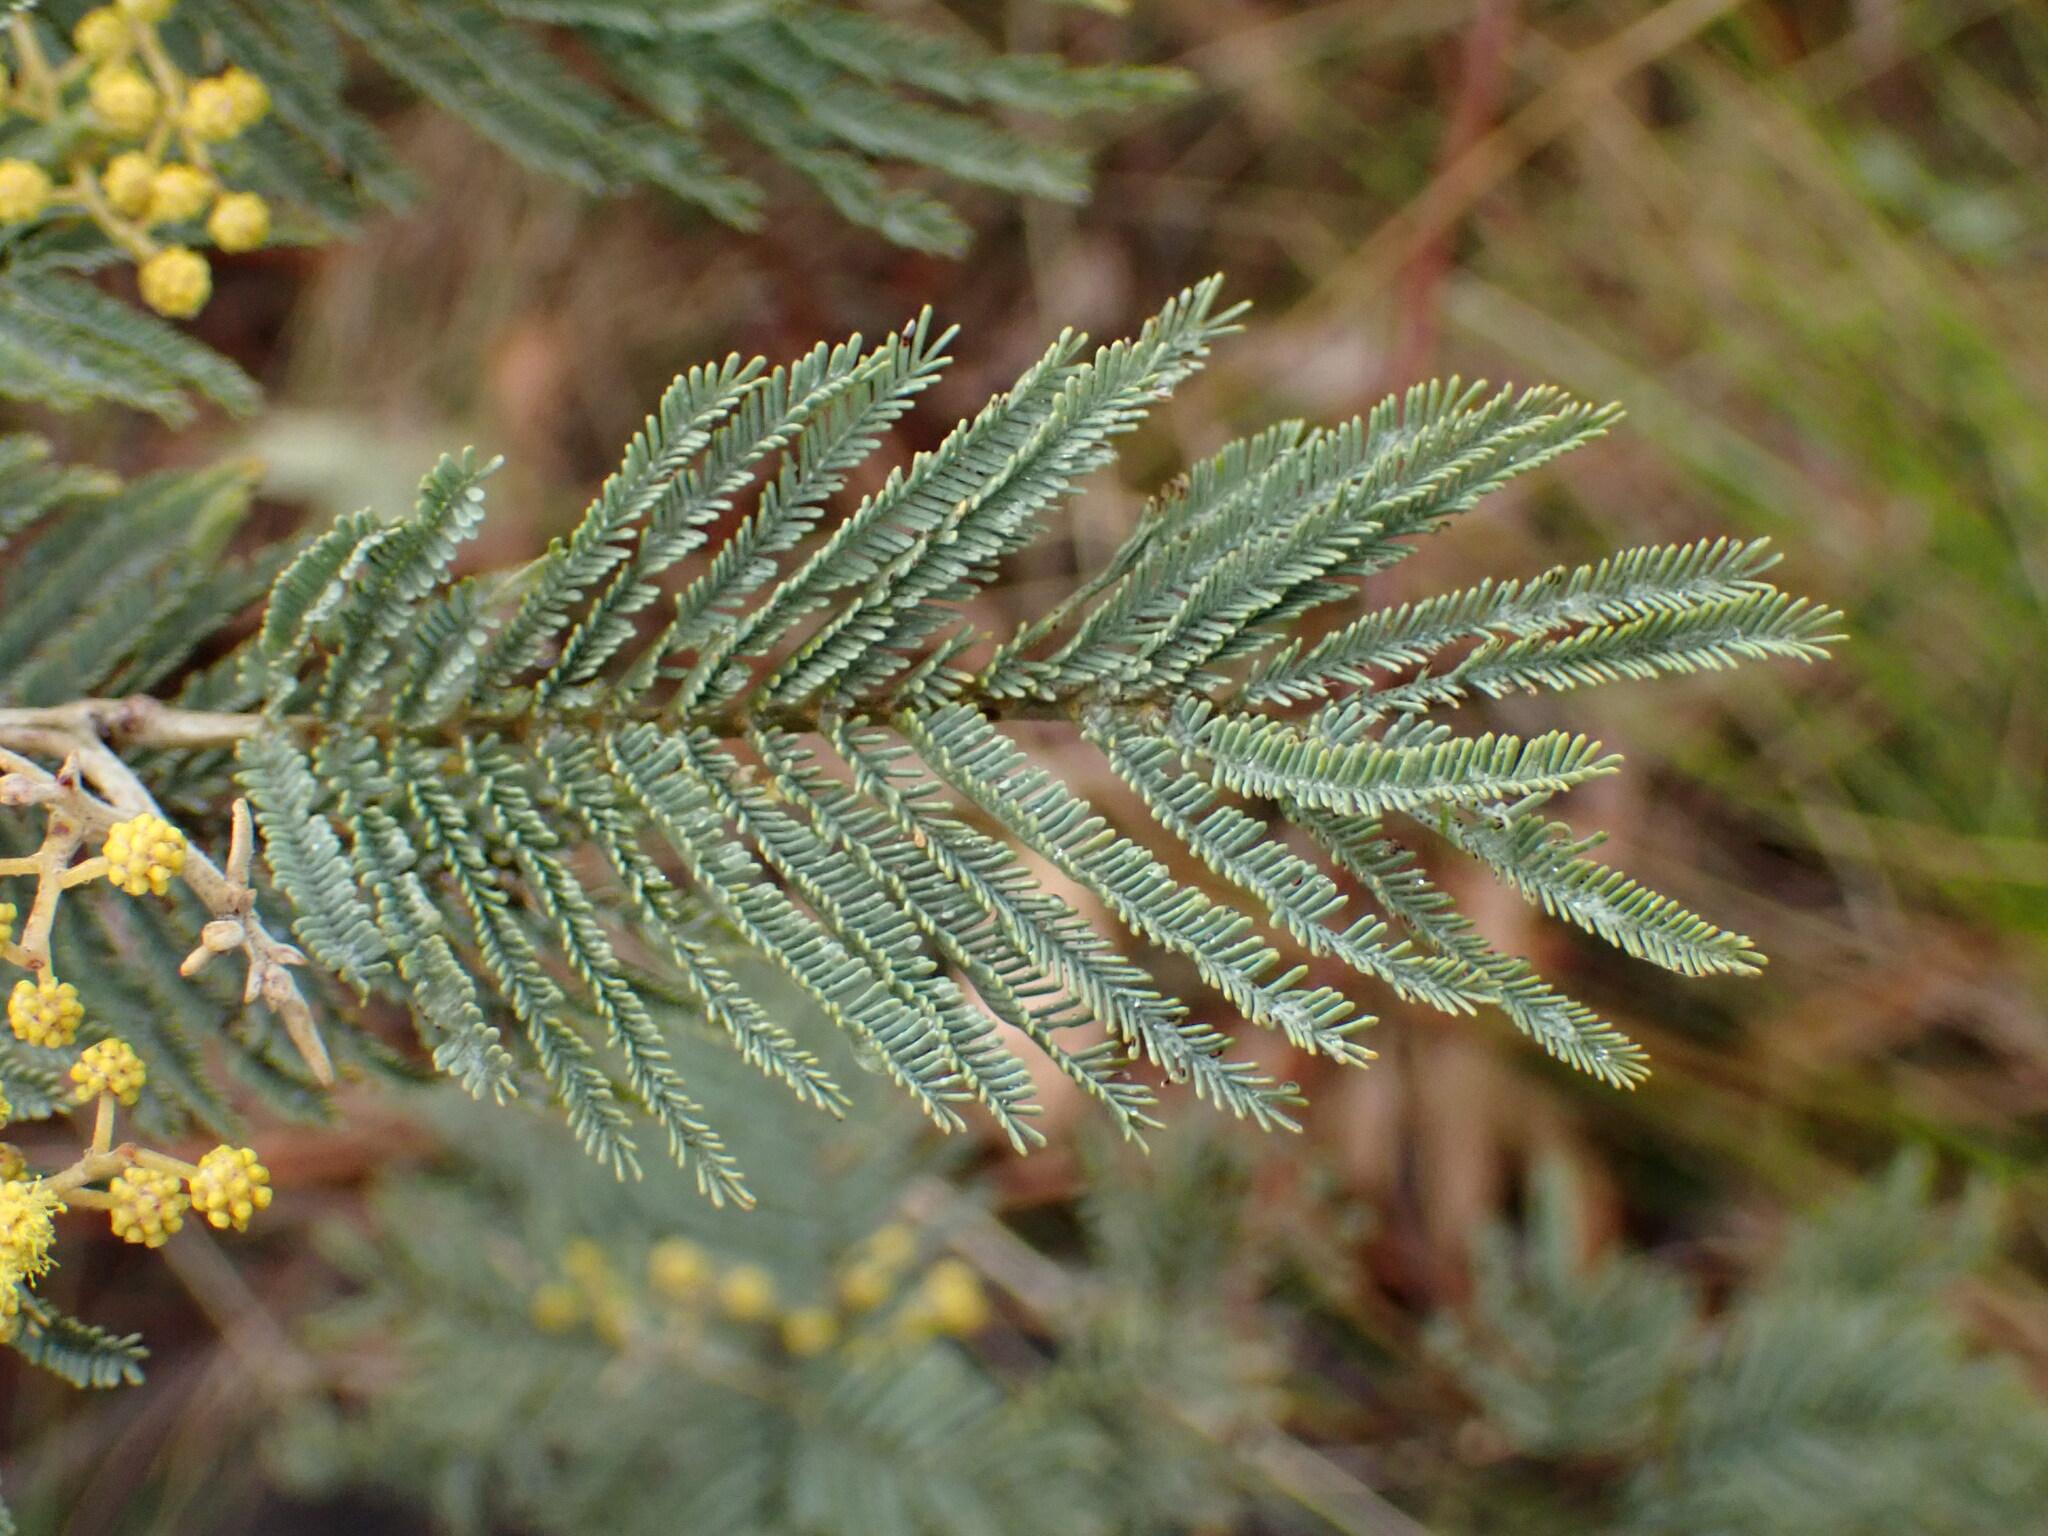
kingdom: Plantae
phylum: Tracheophyta
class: Magnoliopsida
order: Fabales
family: Fabaceae
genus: Acacia
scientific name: Acacia dealbata
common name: Silver wattle
